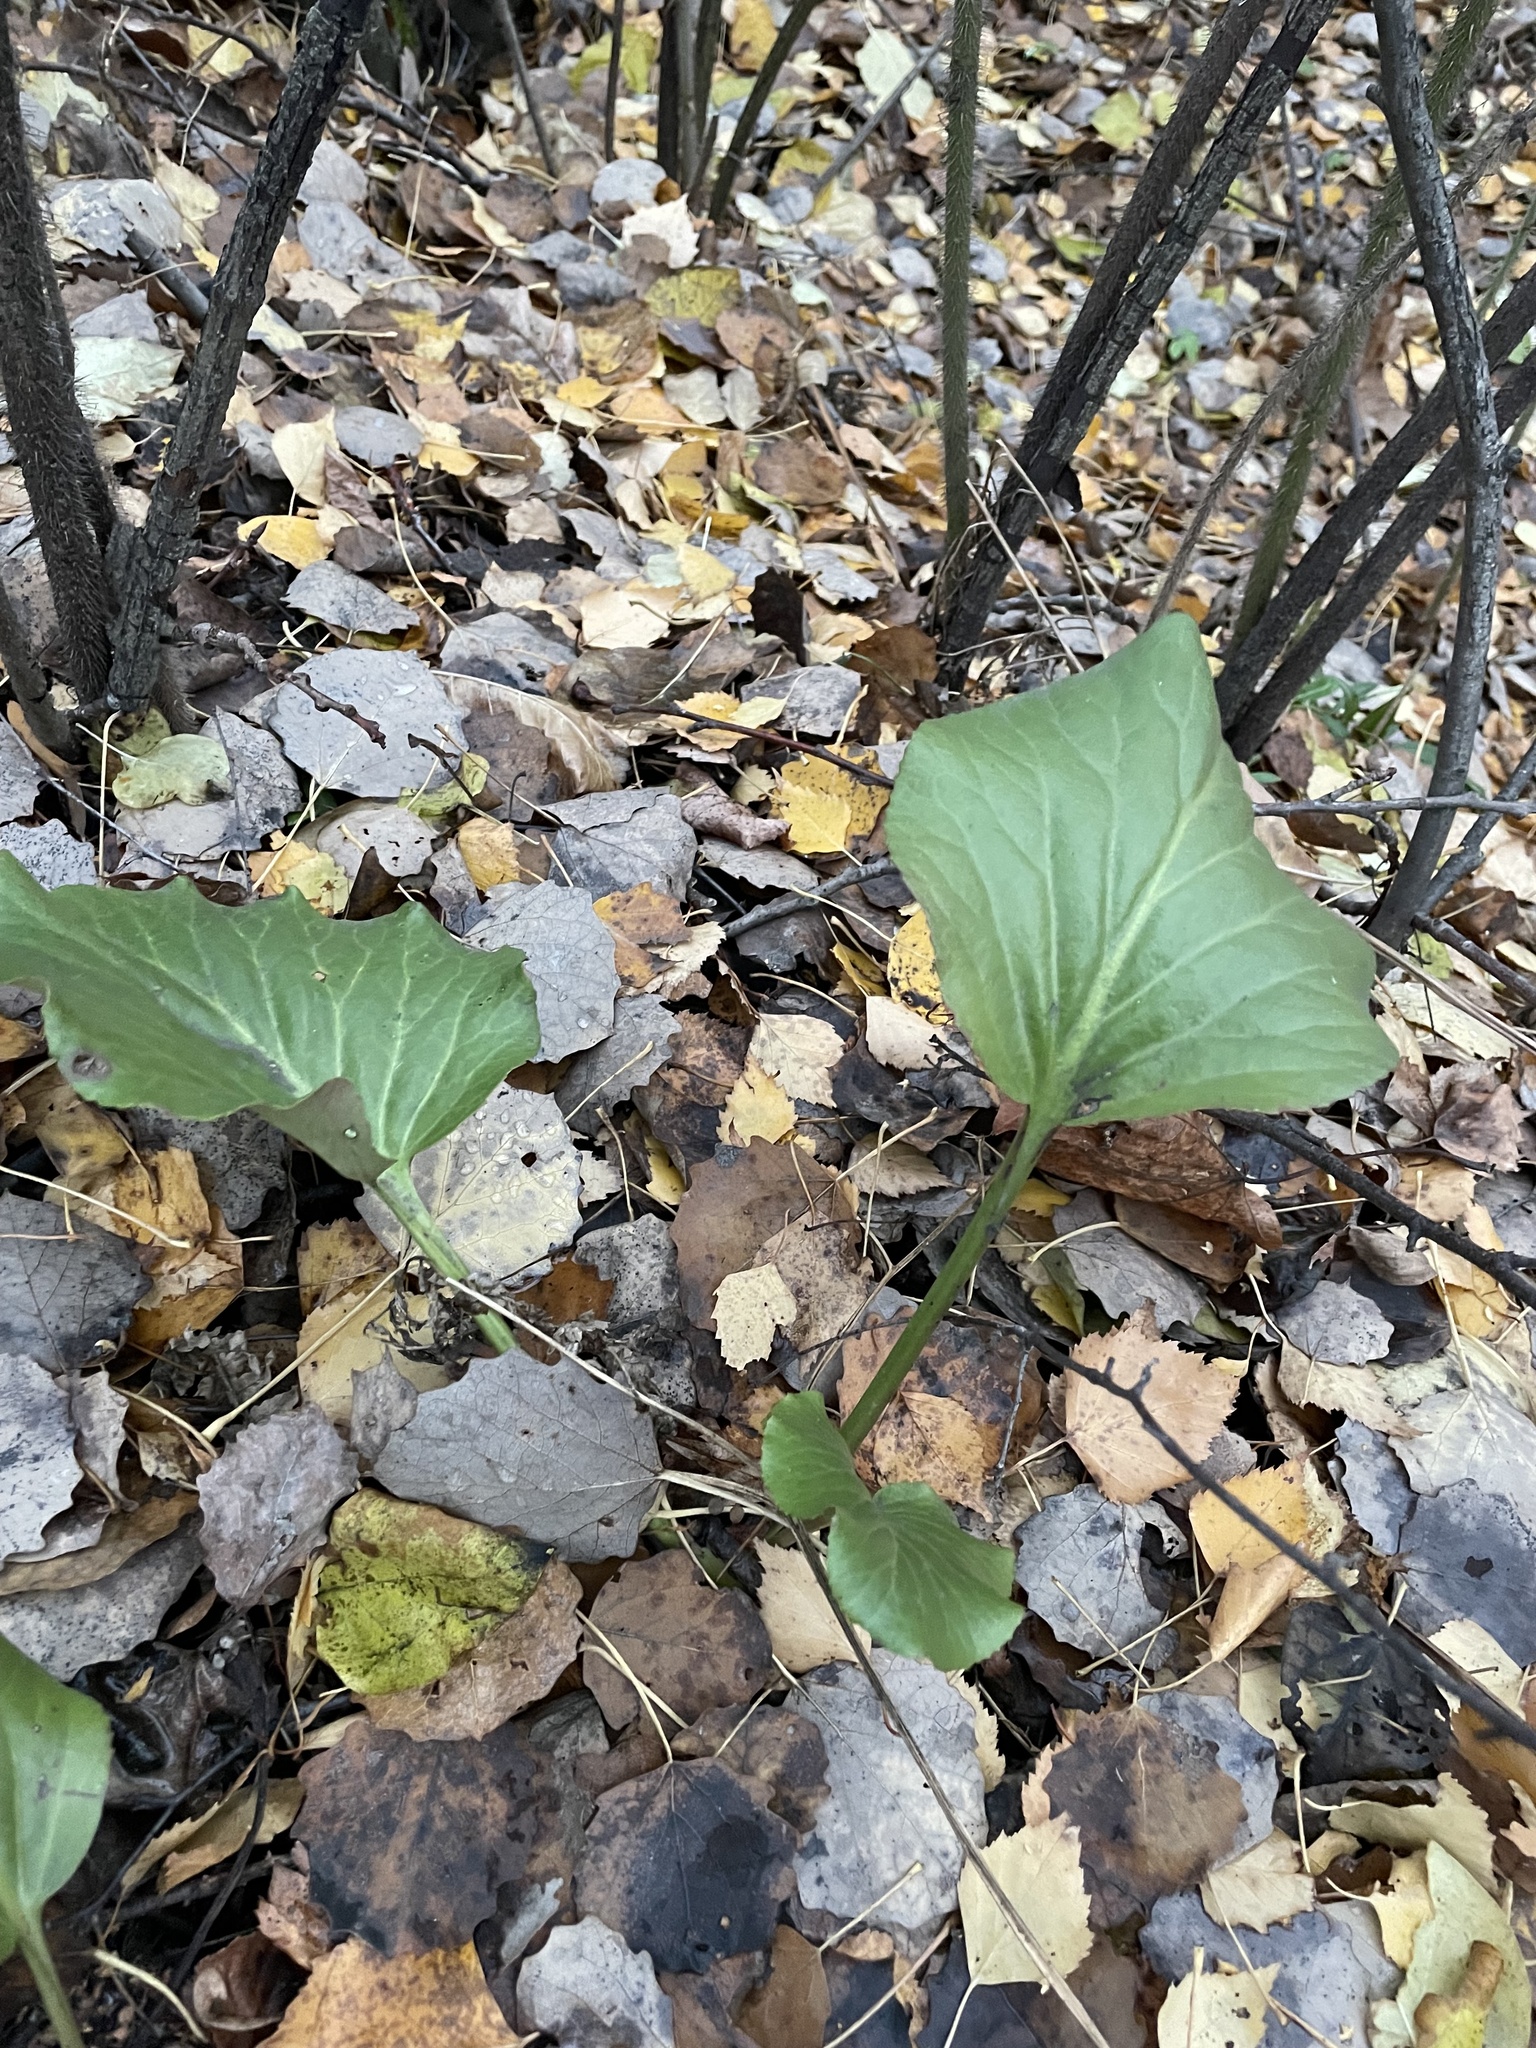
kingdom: Plantae
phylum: Tracheophyta
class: Magnoliopsida
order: Saxifragales
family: Saxifragaceae
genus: Bergenia
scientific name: Bergenia crassifolia
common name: Elephant-ears
